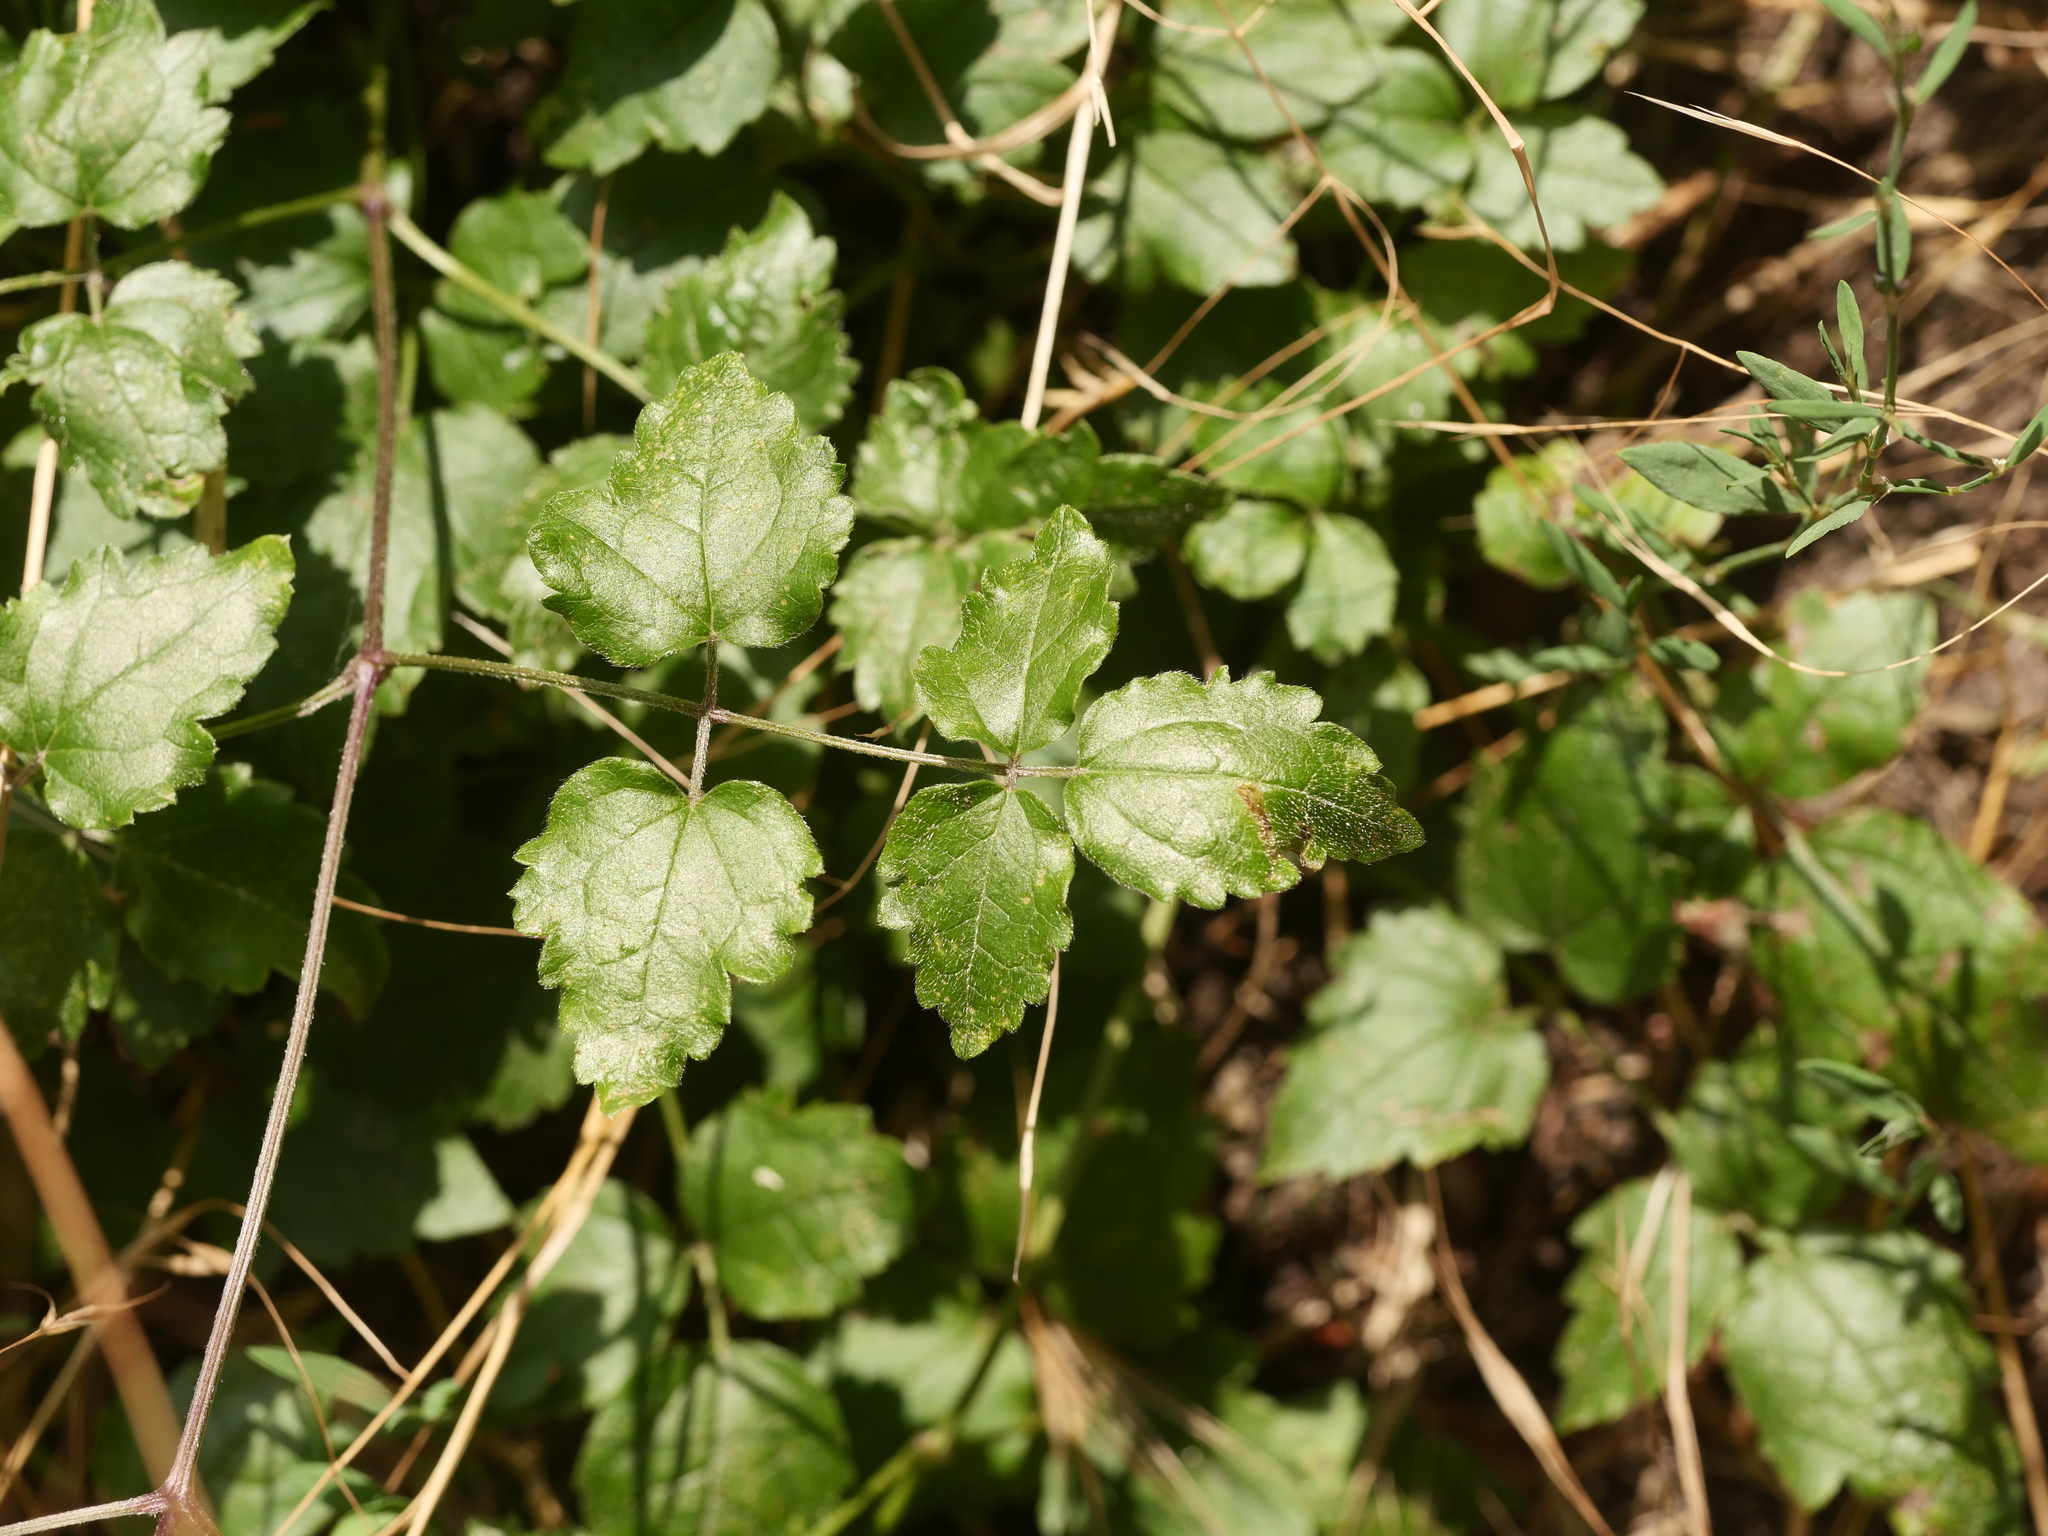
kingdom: Plantae
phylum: Tracheophyta
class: Magnoliopsida
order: Ranunculales
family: Ranunculaceae
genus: Clematis
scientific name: Clematis vitalba
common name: Evergreen clematis
